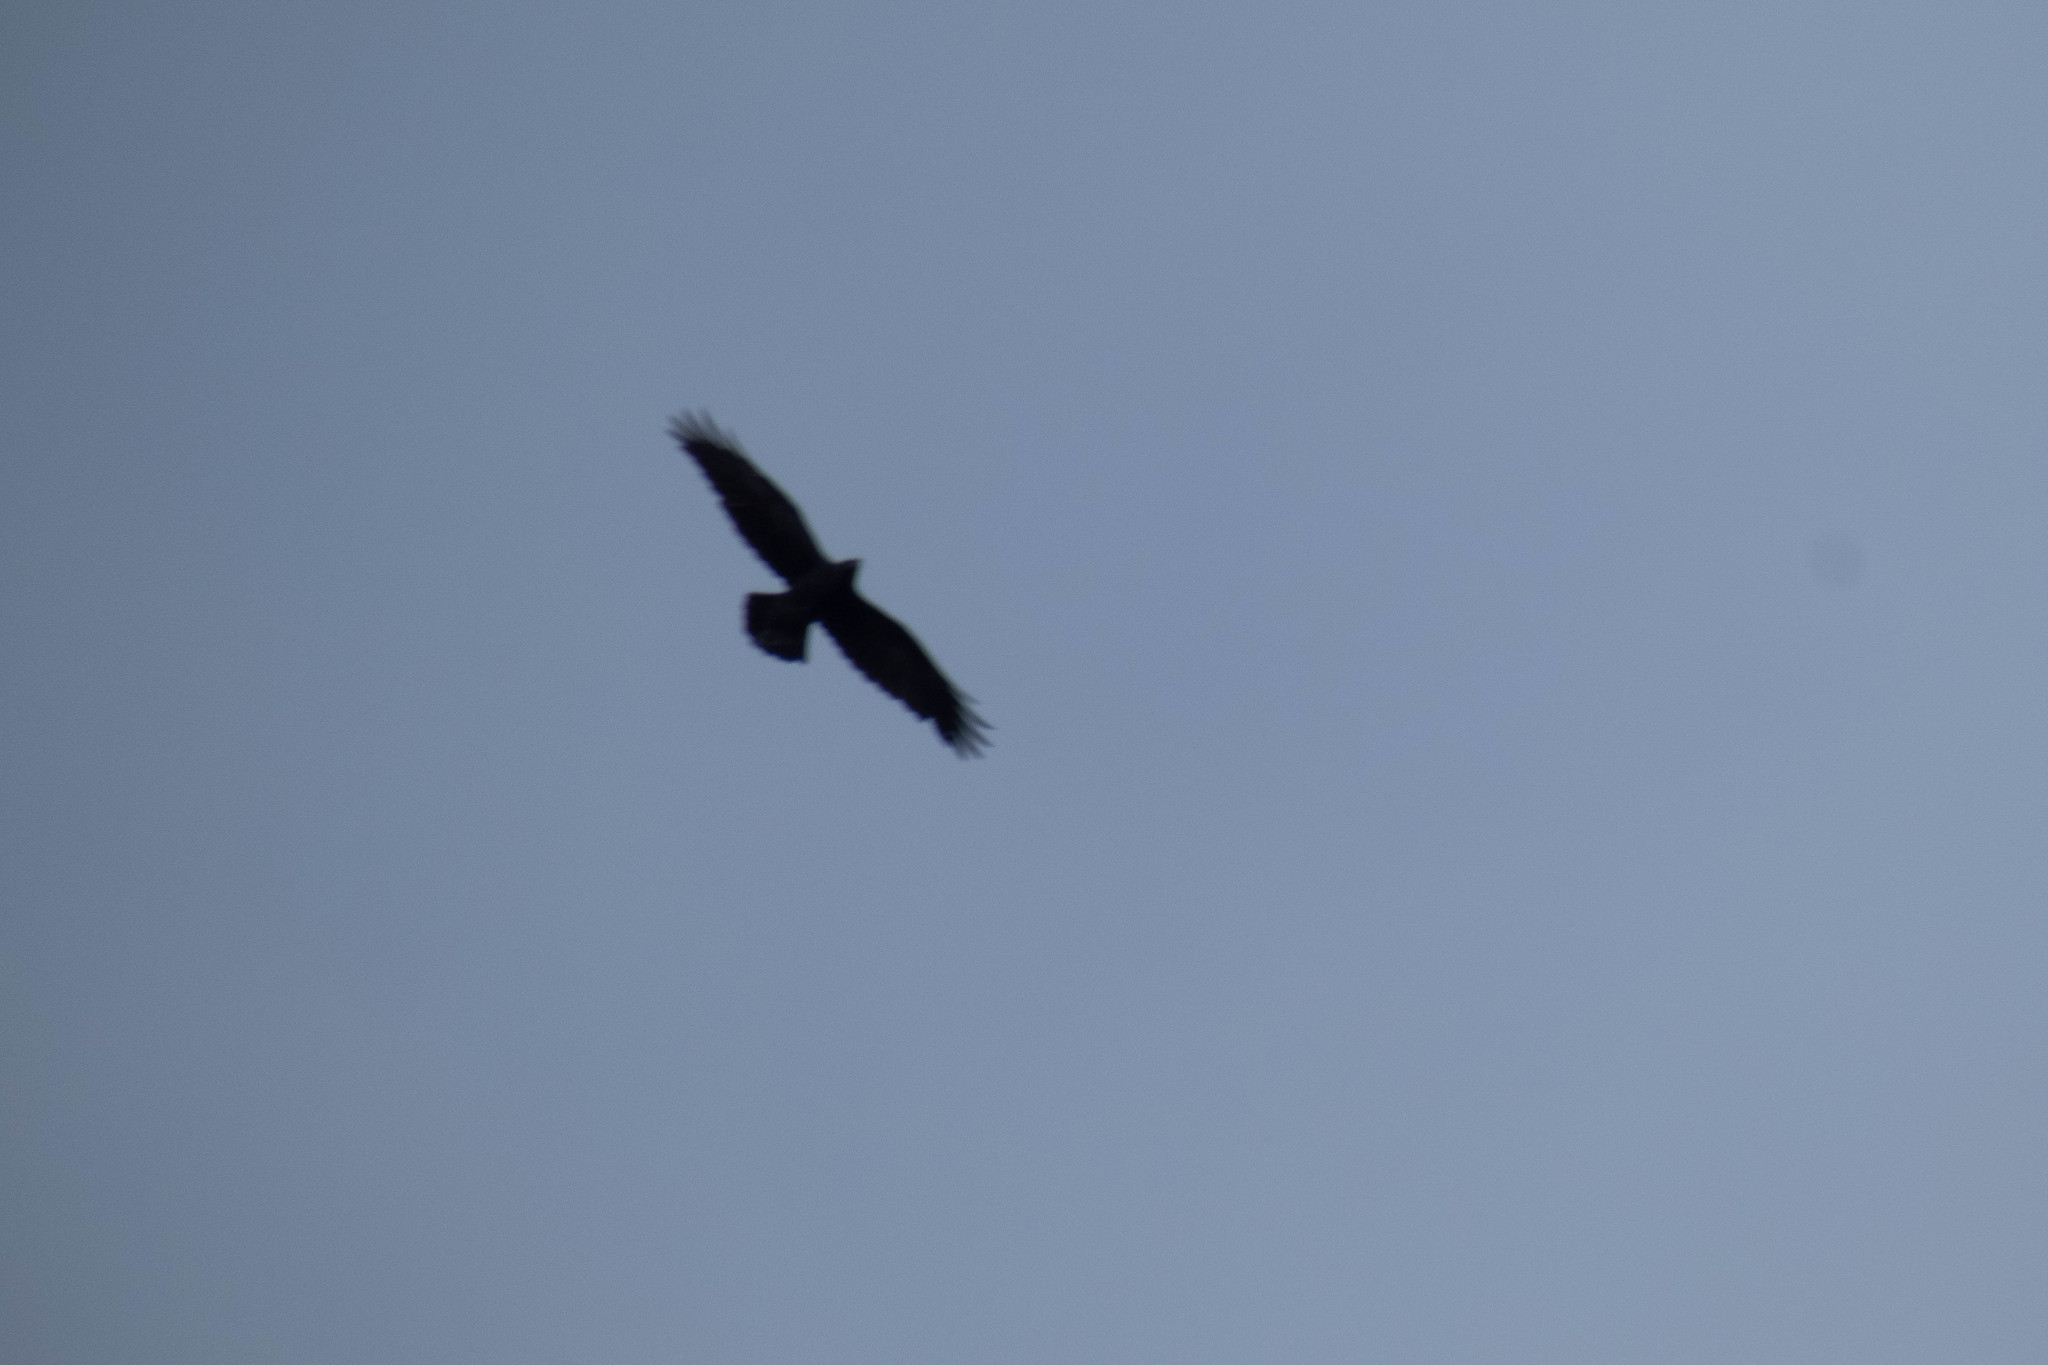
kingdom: Animalia
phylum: Chordata
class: Aves
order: Passeriformes
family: Corvidae
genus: Corvus
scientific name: Corvus corax
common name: Common raven
